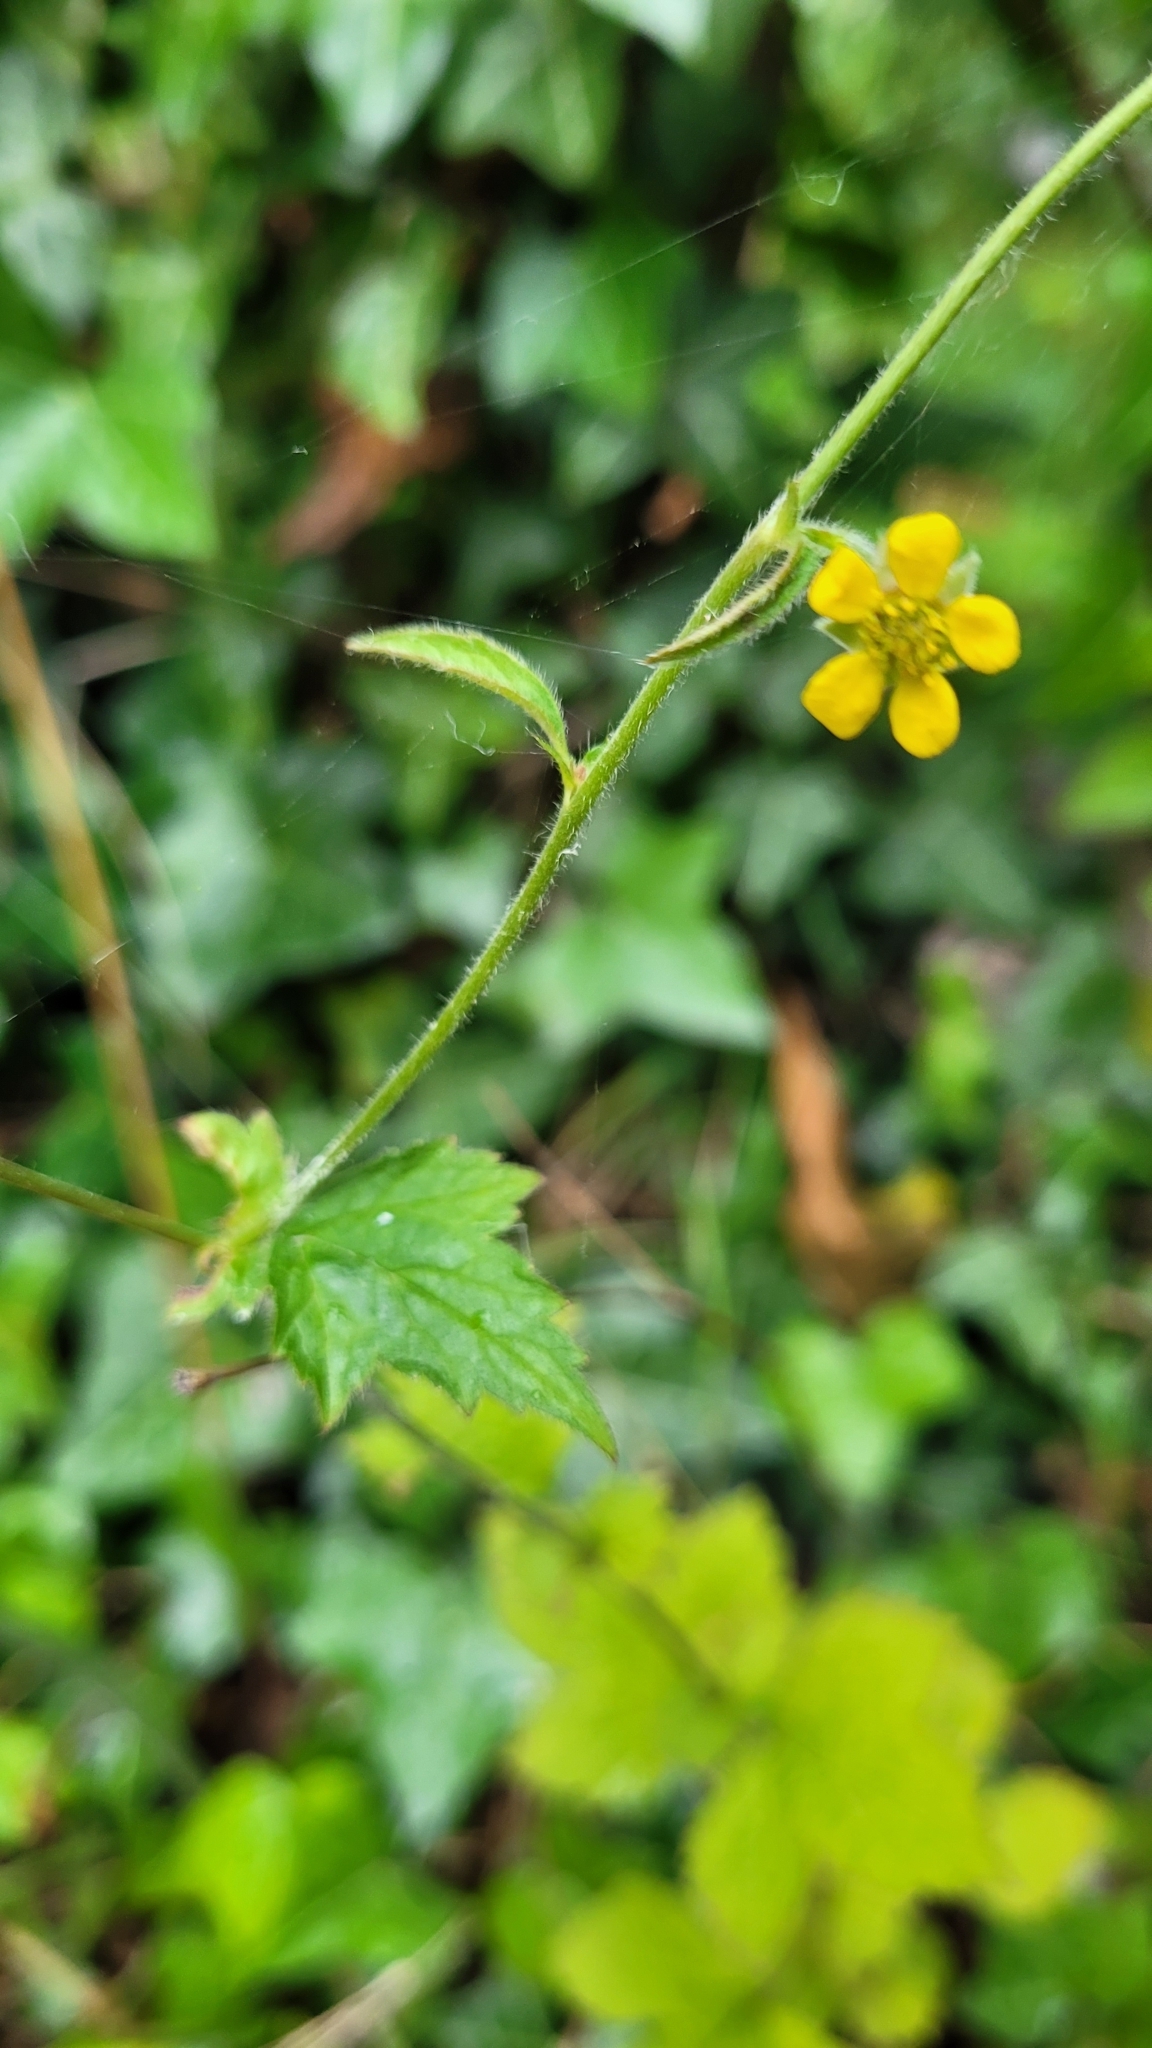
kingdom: Plantae
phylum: Tracheophyta
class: Magnoliopsida
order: Rosales
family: Rosaceae
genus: Geum
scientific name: Geum urbanum
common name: Wood avens
